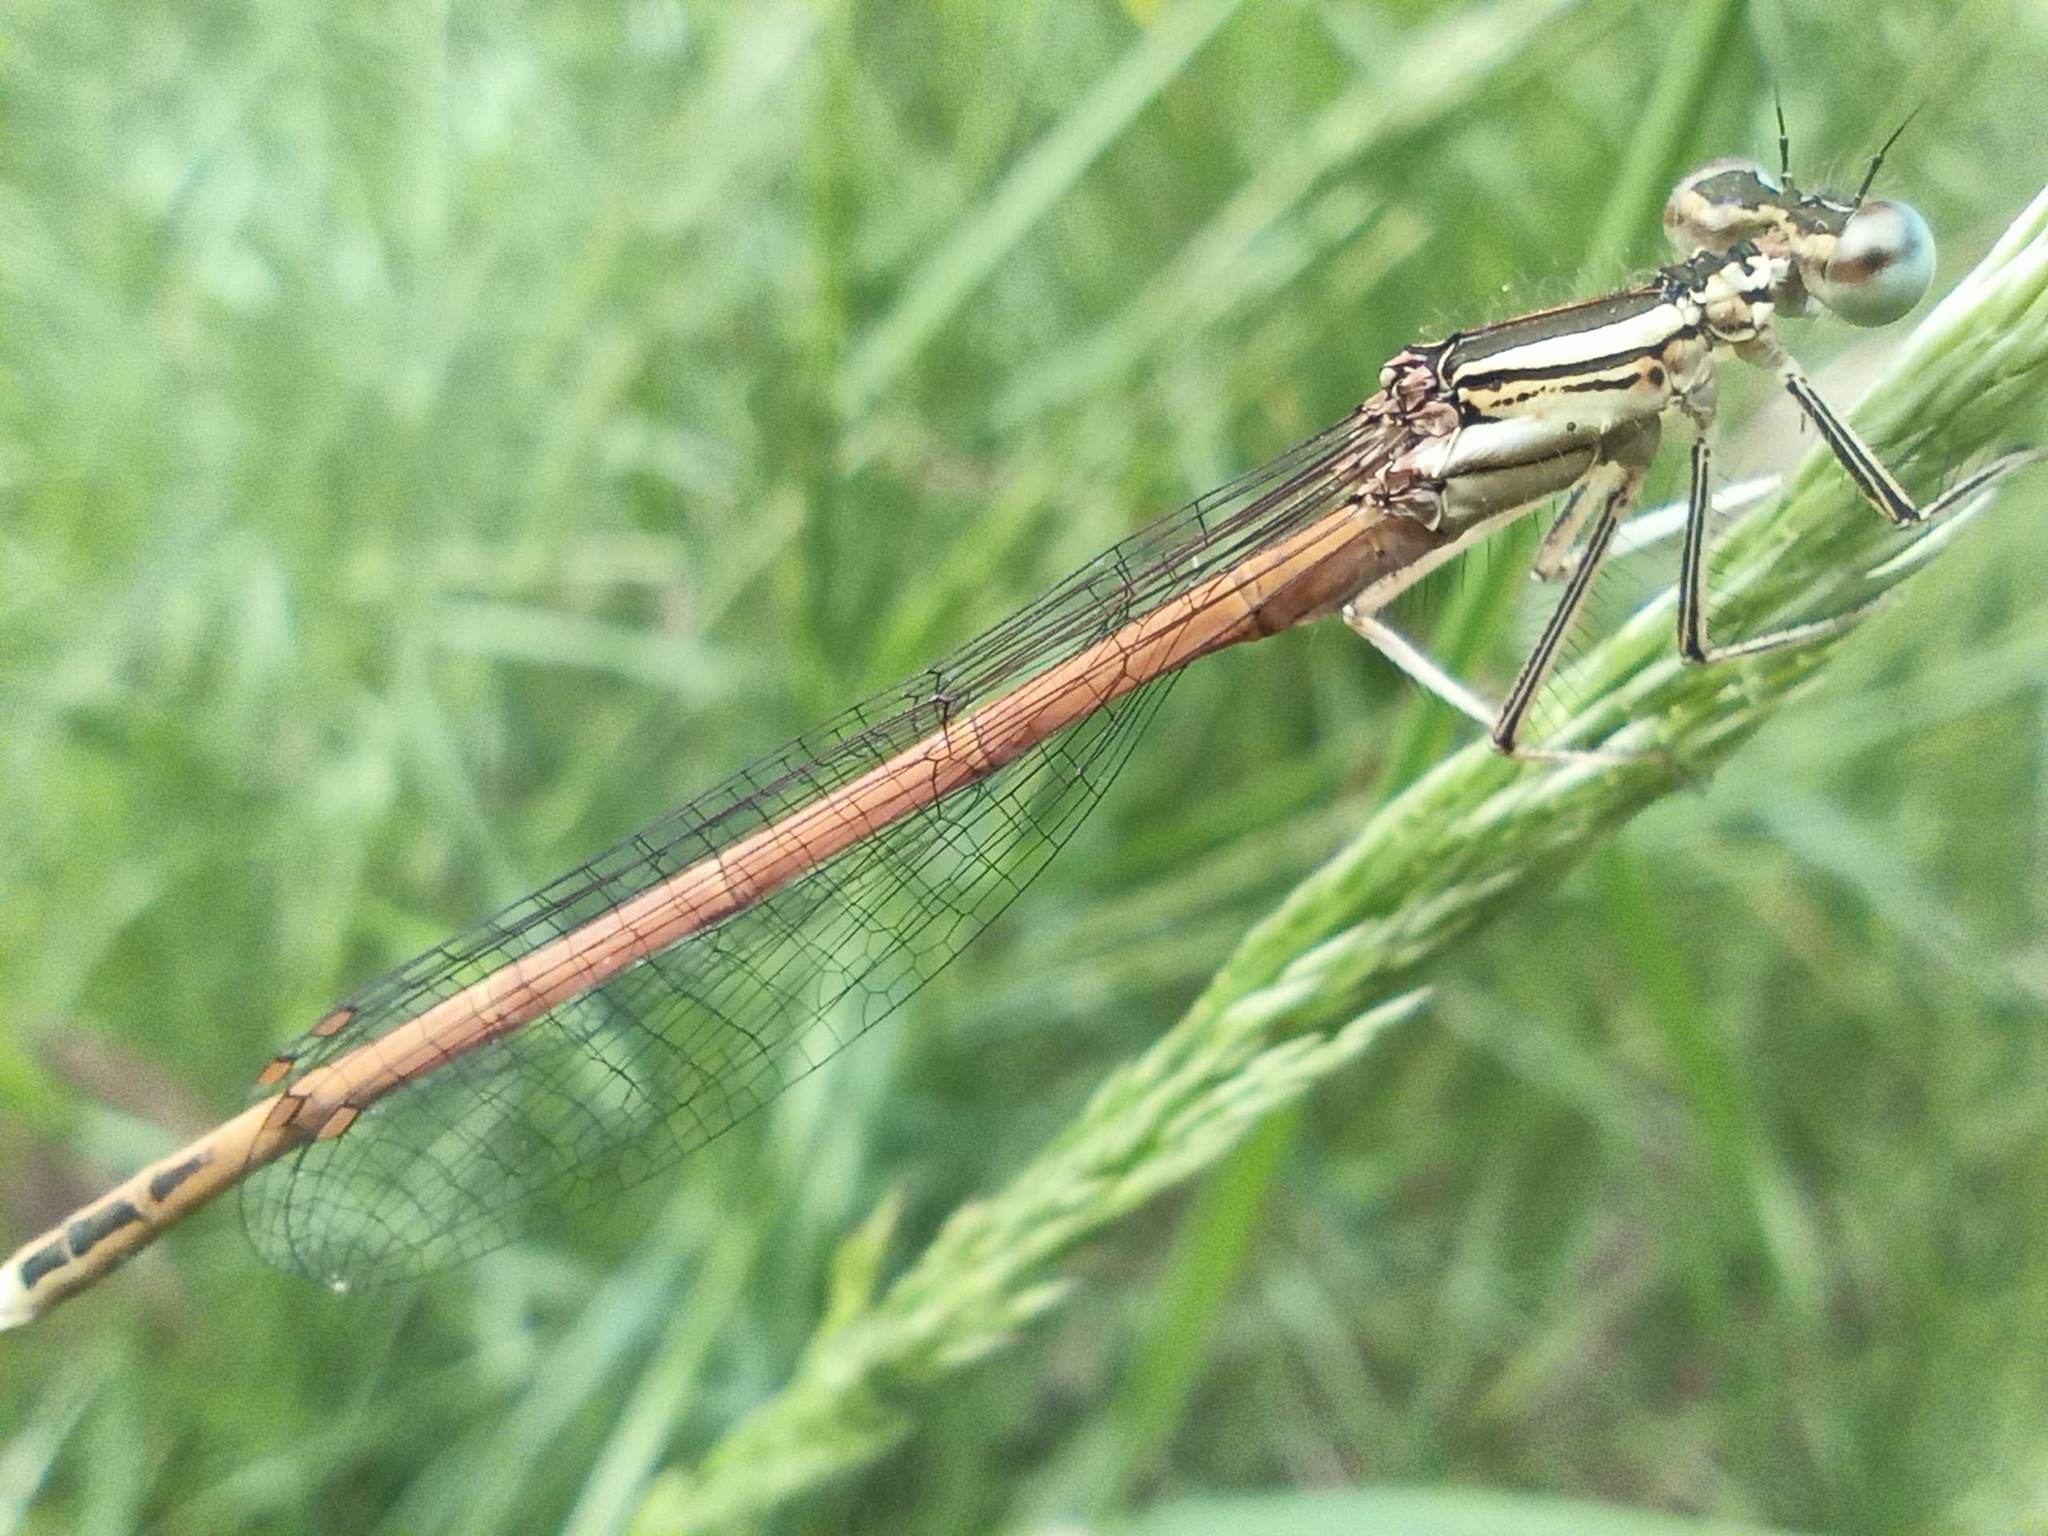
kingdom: Animalia
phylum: Arthropoda
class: Insecta
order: Odonata
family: Platycnemididae
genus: Platycnemis
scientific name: Platycnemis acutipennis
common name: Orange featherleg
